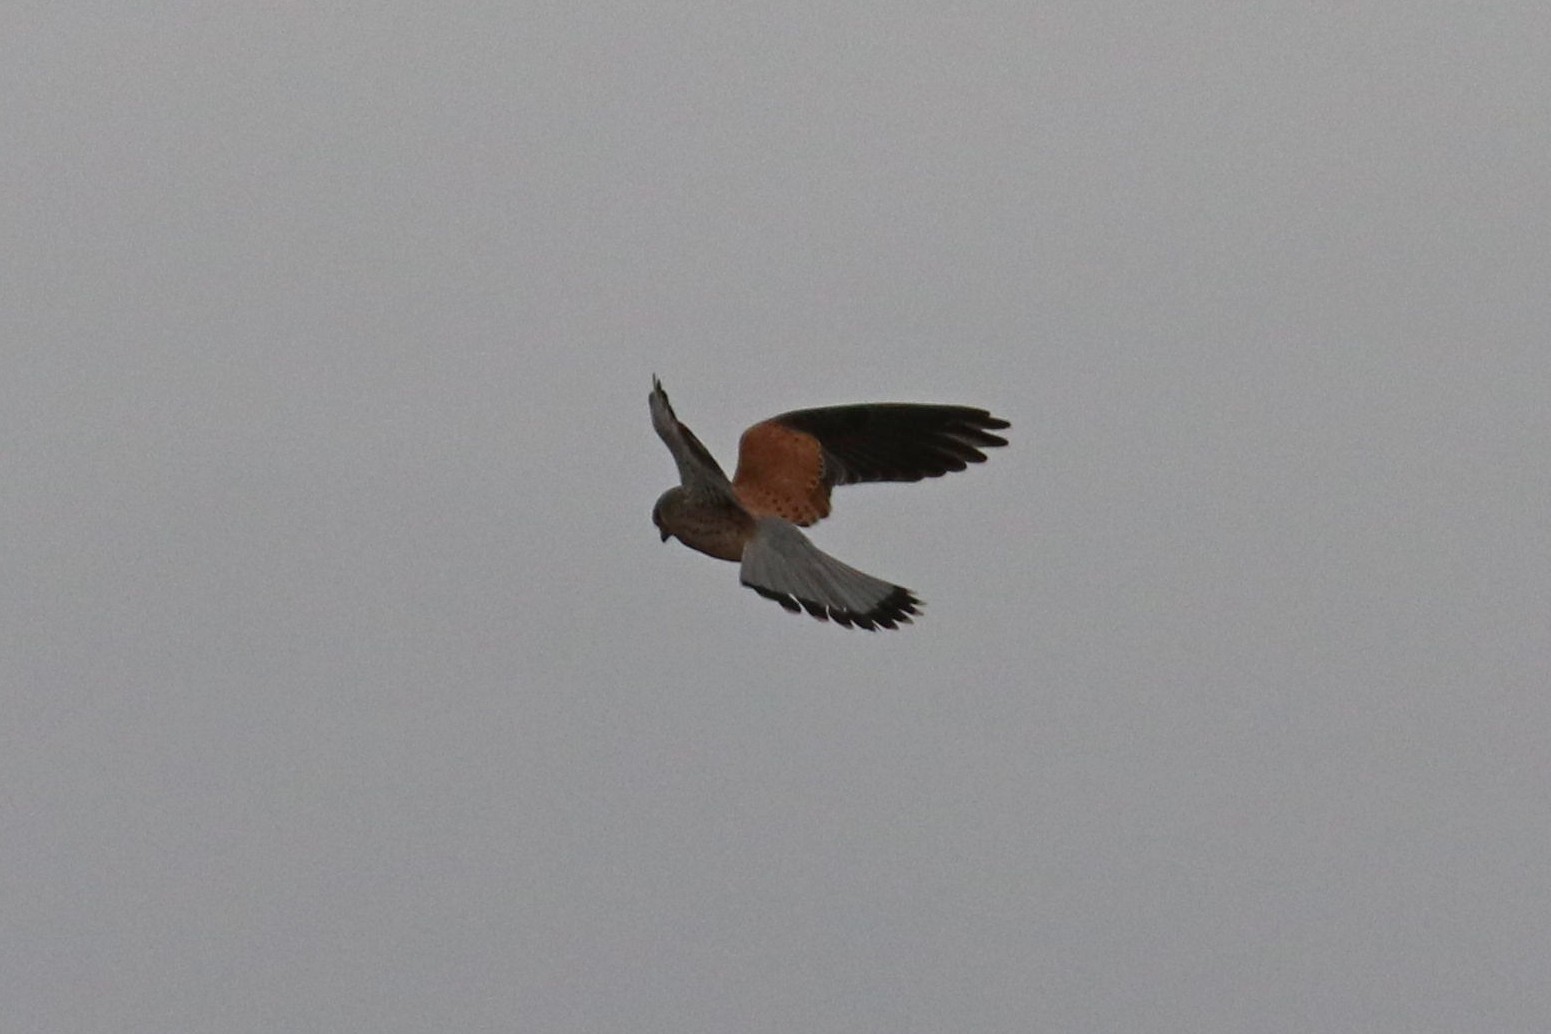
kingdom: Animalia
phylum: Chordata
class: Aves
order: Falconiformes
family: Falconidae
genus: Falco
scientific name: Falco tinnunculus
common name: Common kestrel
